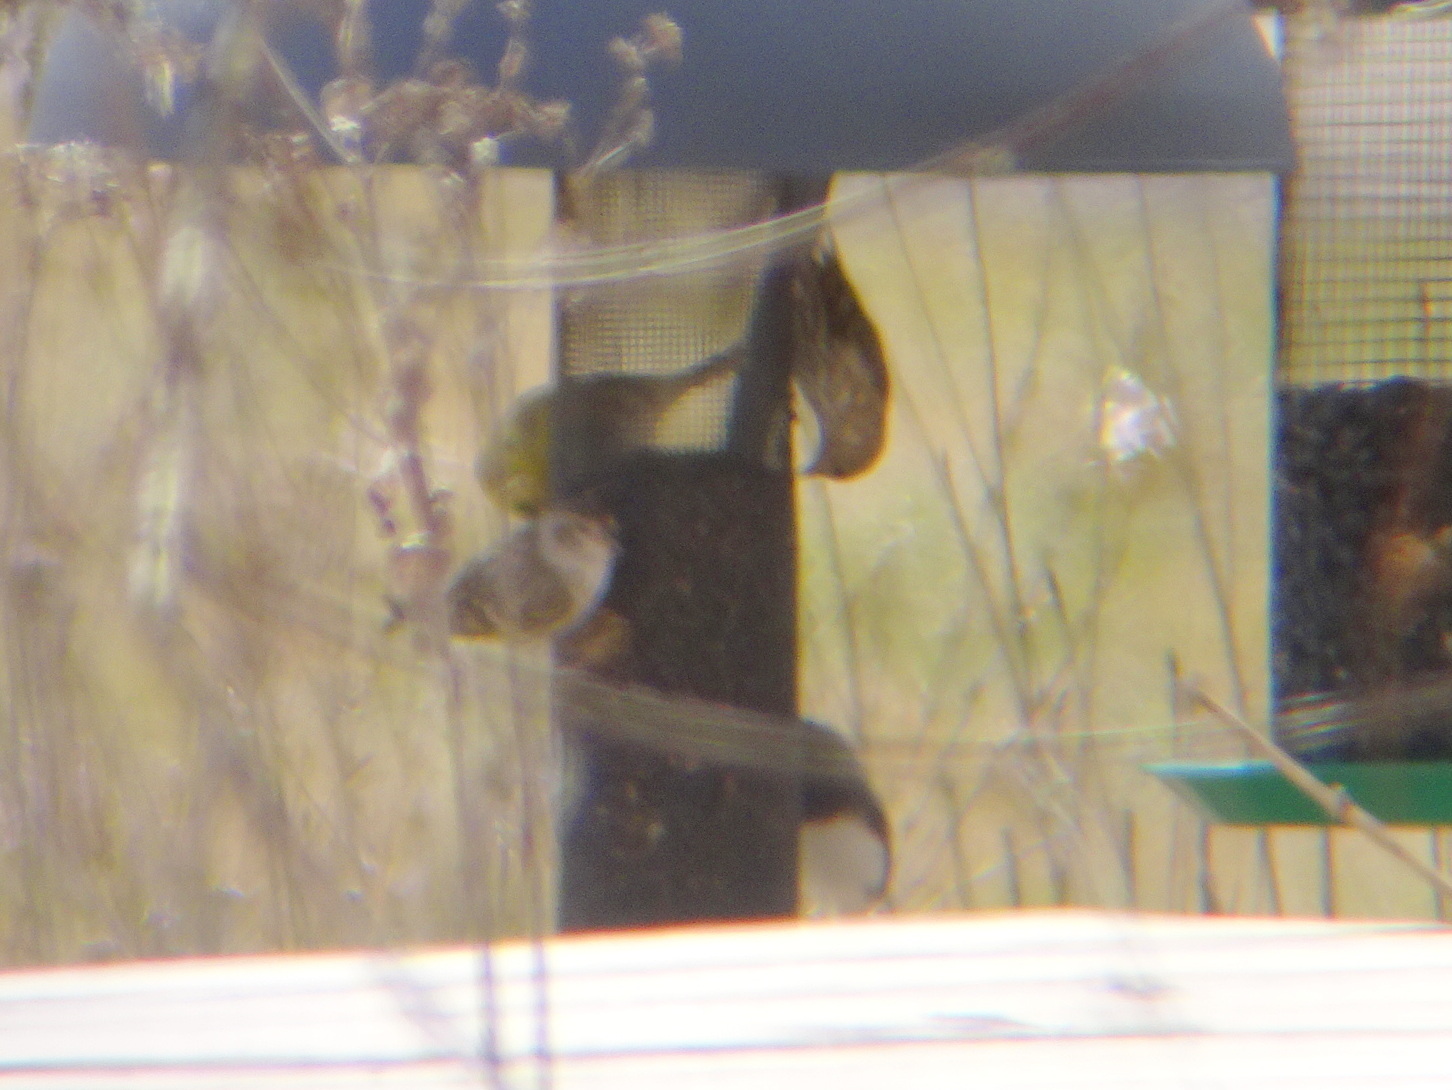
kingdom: Animalia
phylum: Chordata
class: Aves
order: Passeriformes
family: Fringillidae
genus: Spinus
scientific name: Spinus pinus
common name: Pine siskin
